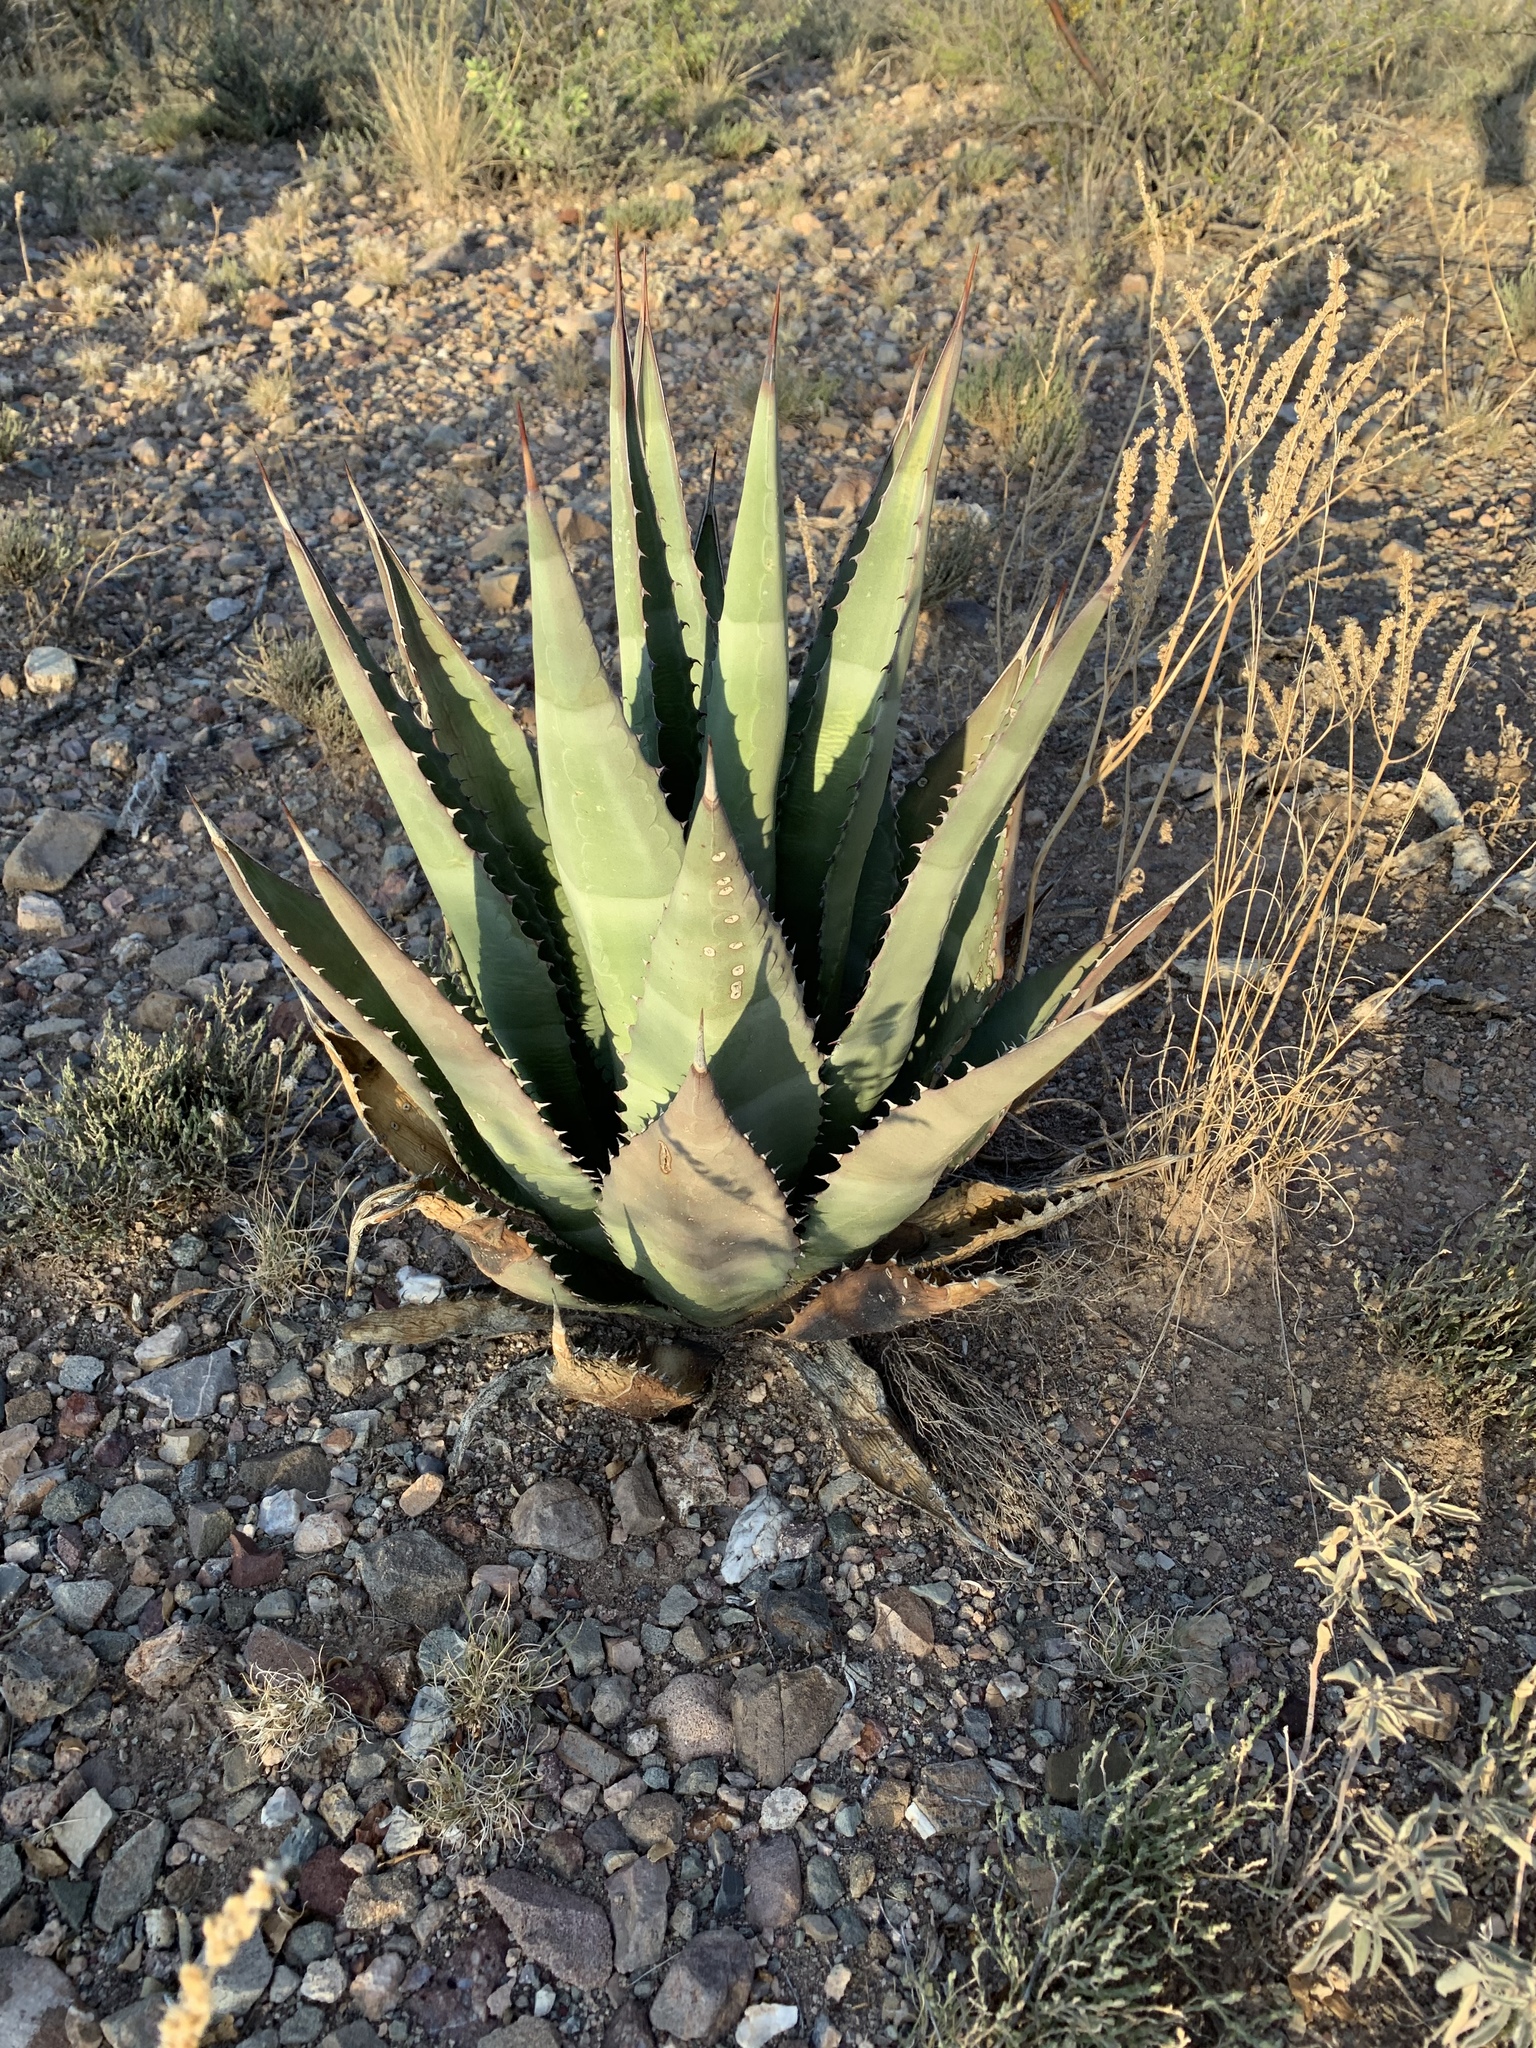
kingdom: Plantae
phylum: Tracheophyta
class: Liliopsida
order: Asparagales
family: Asparagaceae
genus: Agave
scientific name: Agave palmeri
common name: Palmer agave
